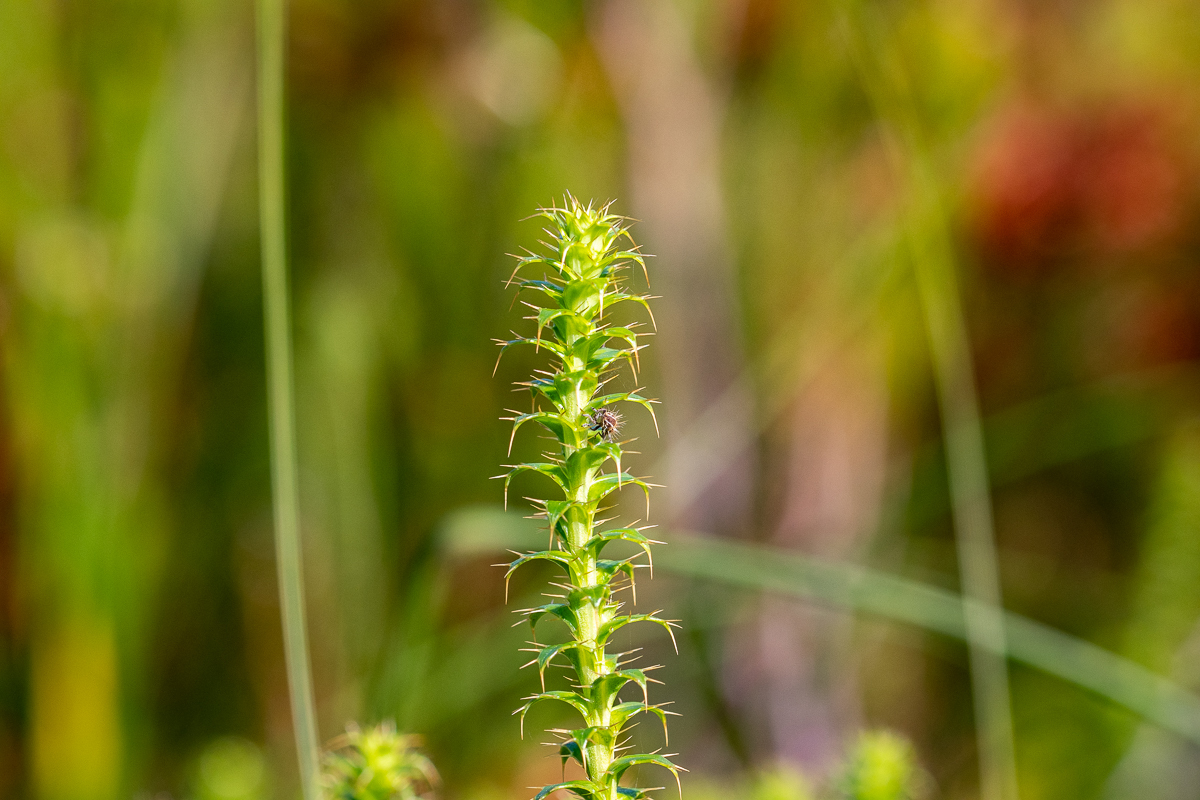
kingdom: Plantae
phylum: Tracheophyta
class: Magnoliopsida
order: Asterales
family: Asteraceae
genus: Cullumia
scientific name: Cullumia setosa
